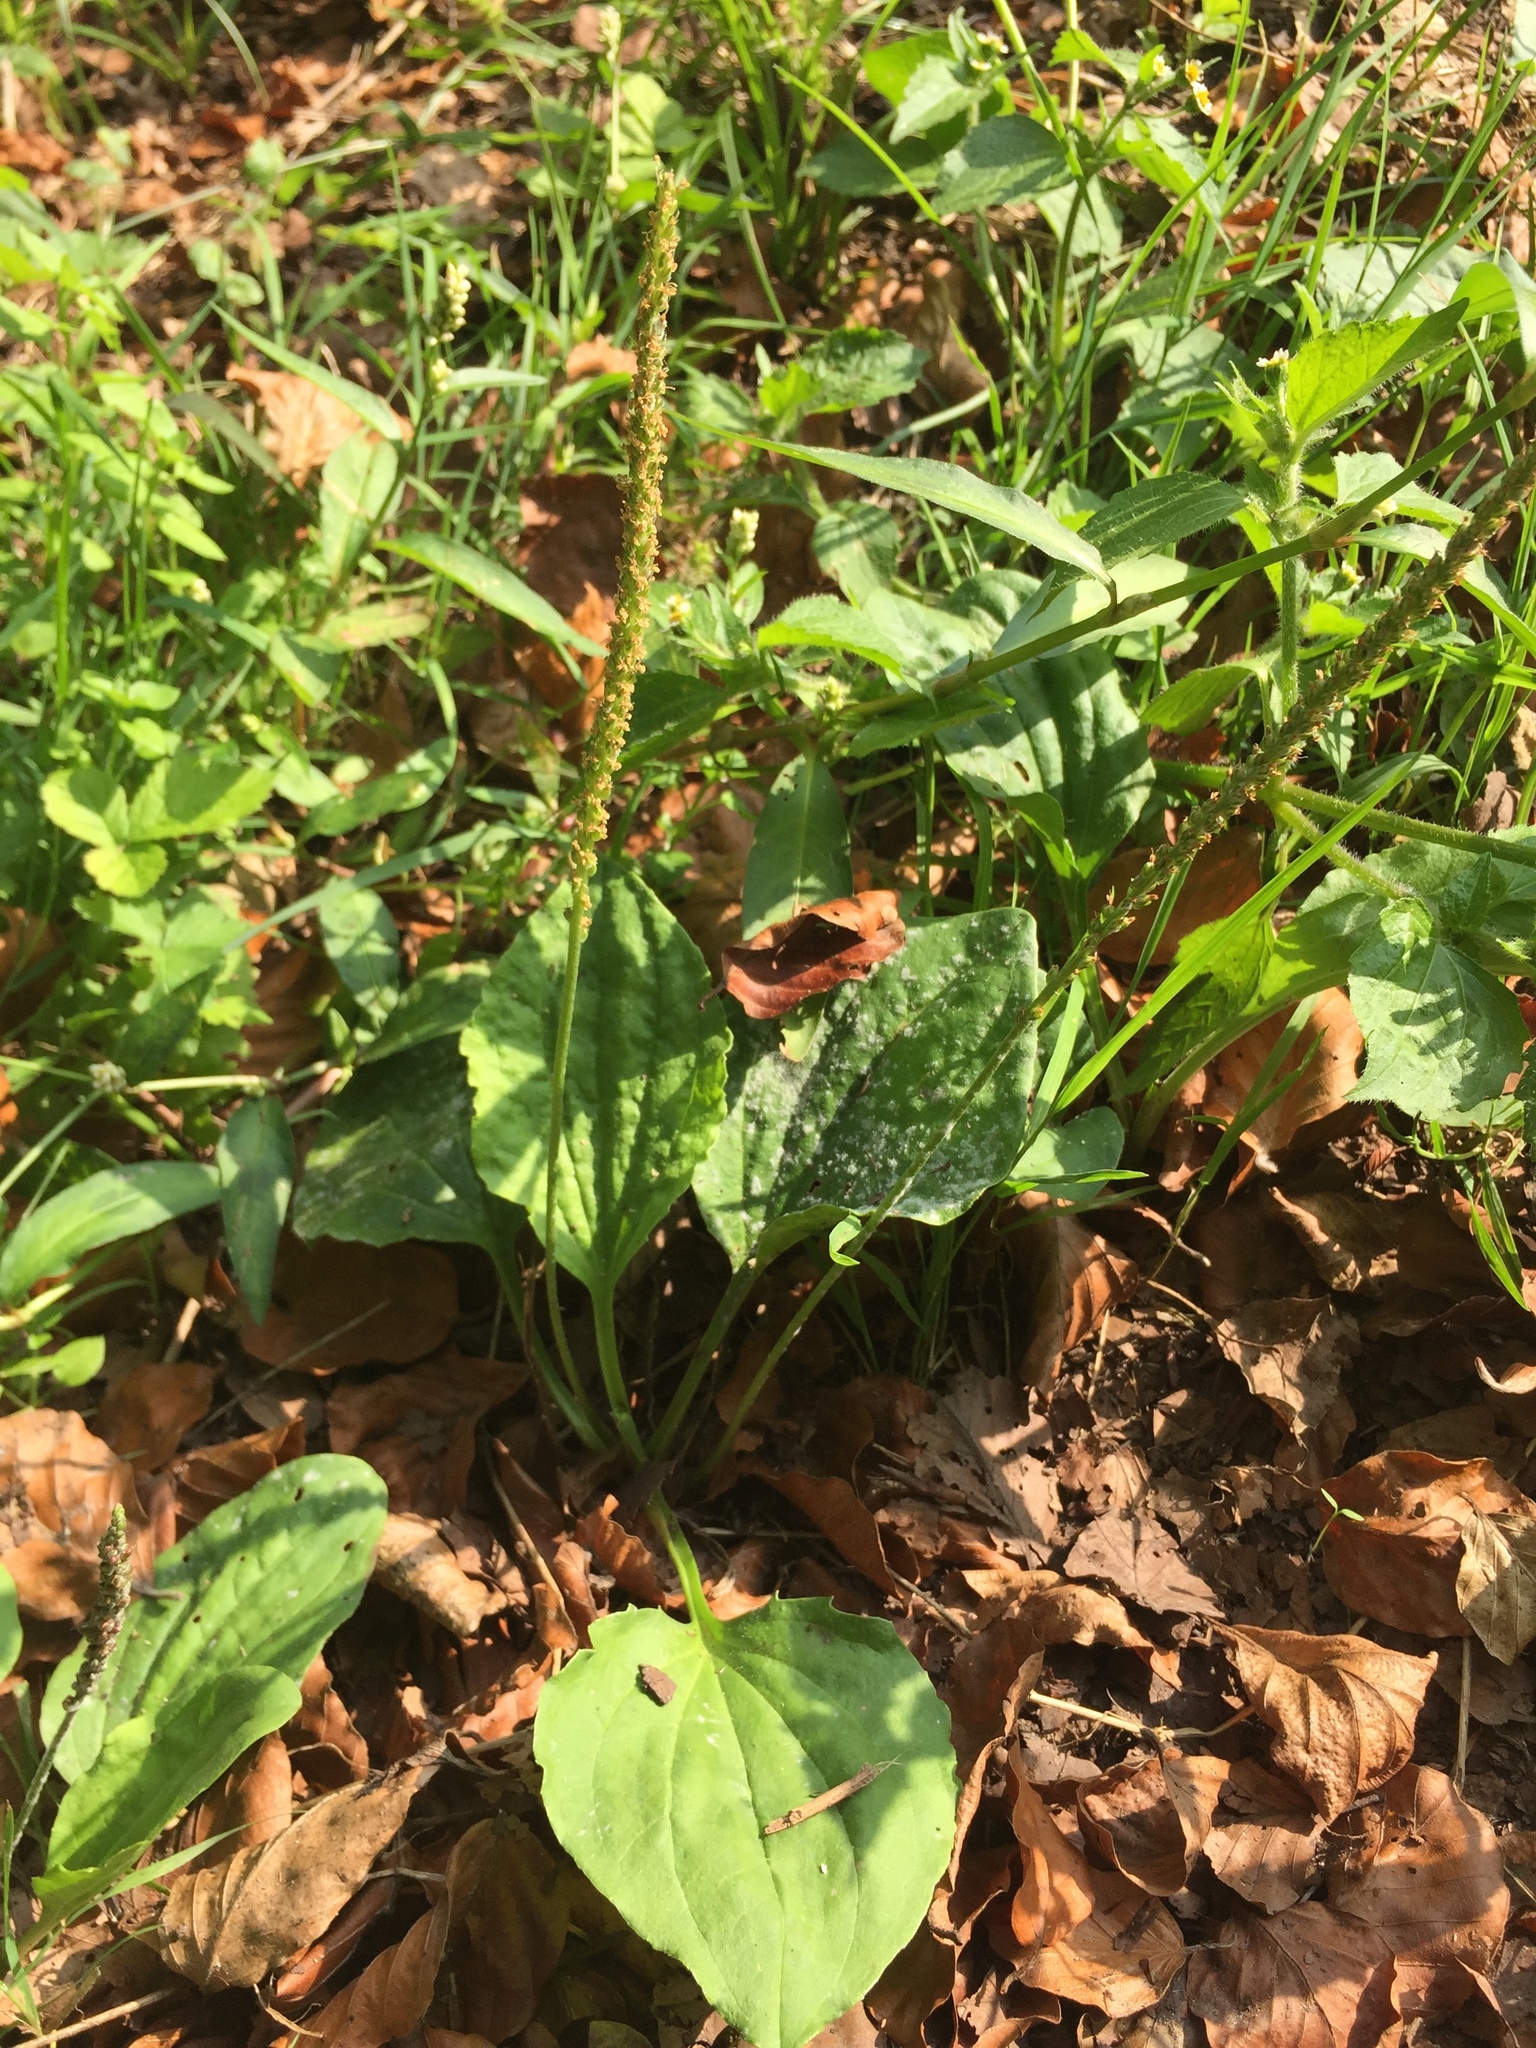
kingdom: Plantae
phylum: Tracheophyta
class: Magnoliopsida
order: Lamiales
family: Plantaginaceae
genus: Plantago
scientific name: Plantago major
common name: Common plantain
